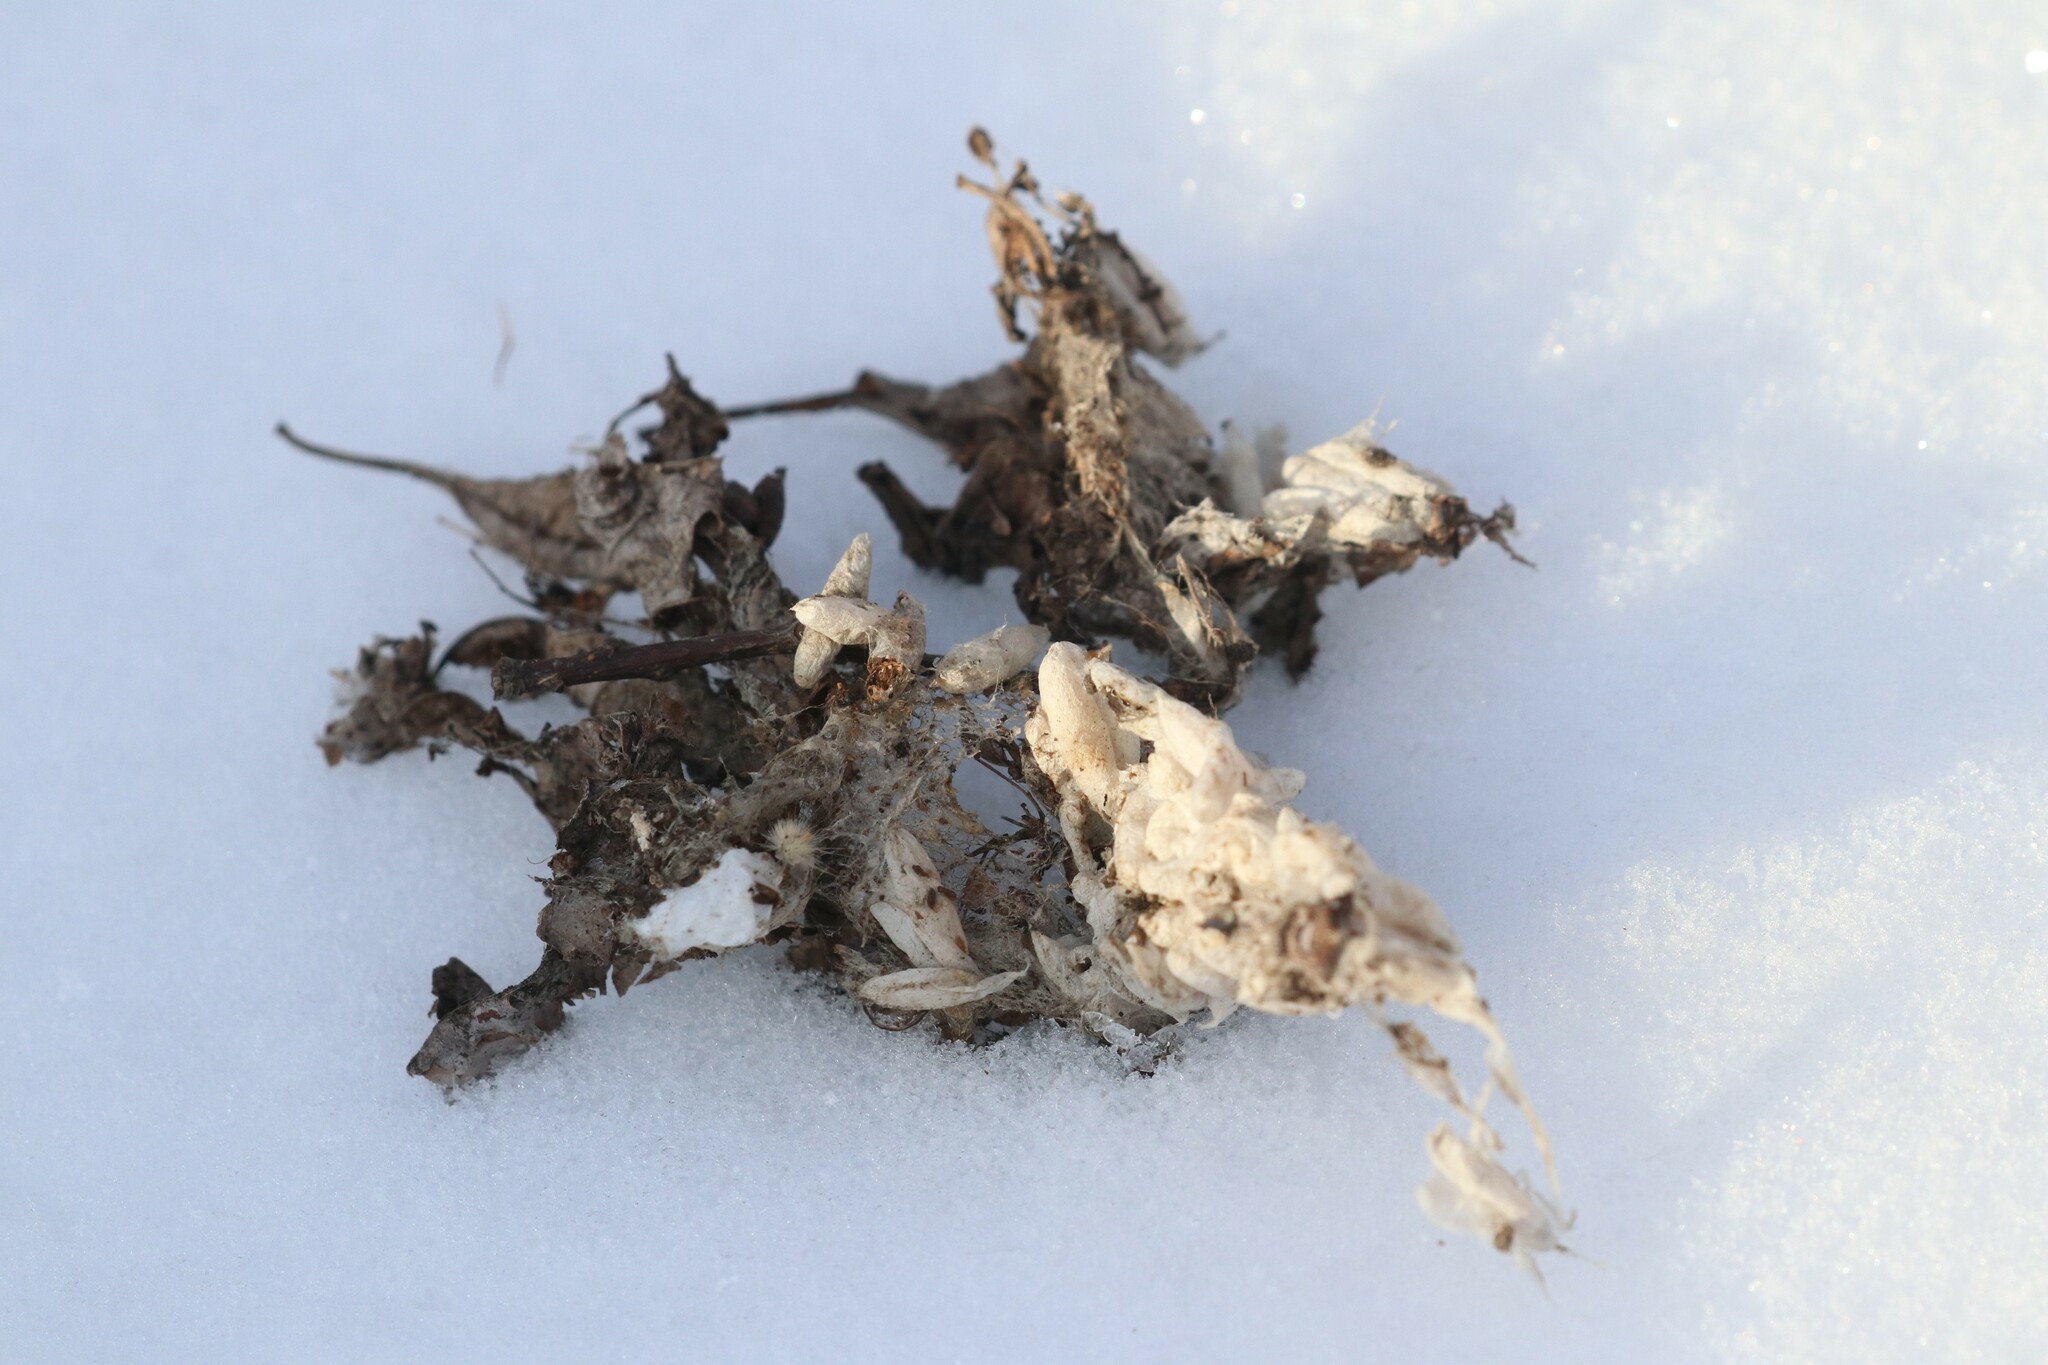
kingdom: Animalia
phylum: Arthropoda
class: Insecta
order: Lepidoptera
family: Yponomeutidae
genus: Yponomeuta
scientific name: Yponomeuta evonymella
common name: Bird-cherry ermine
